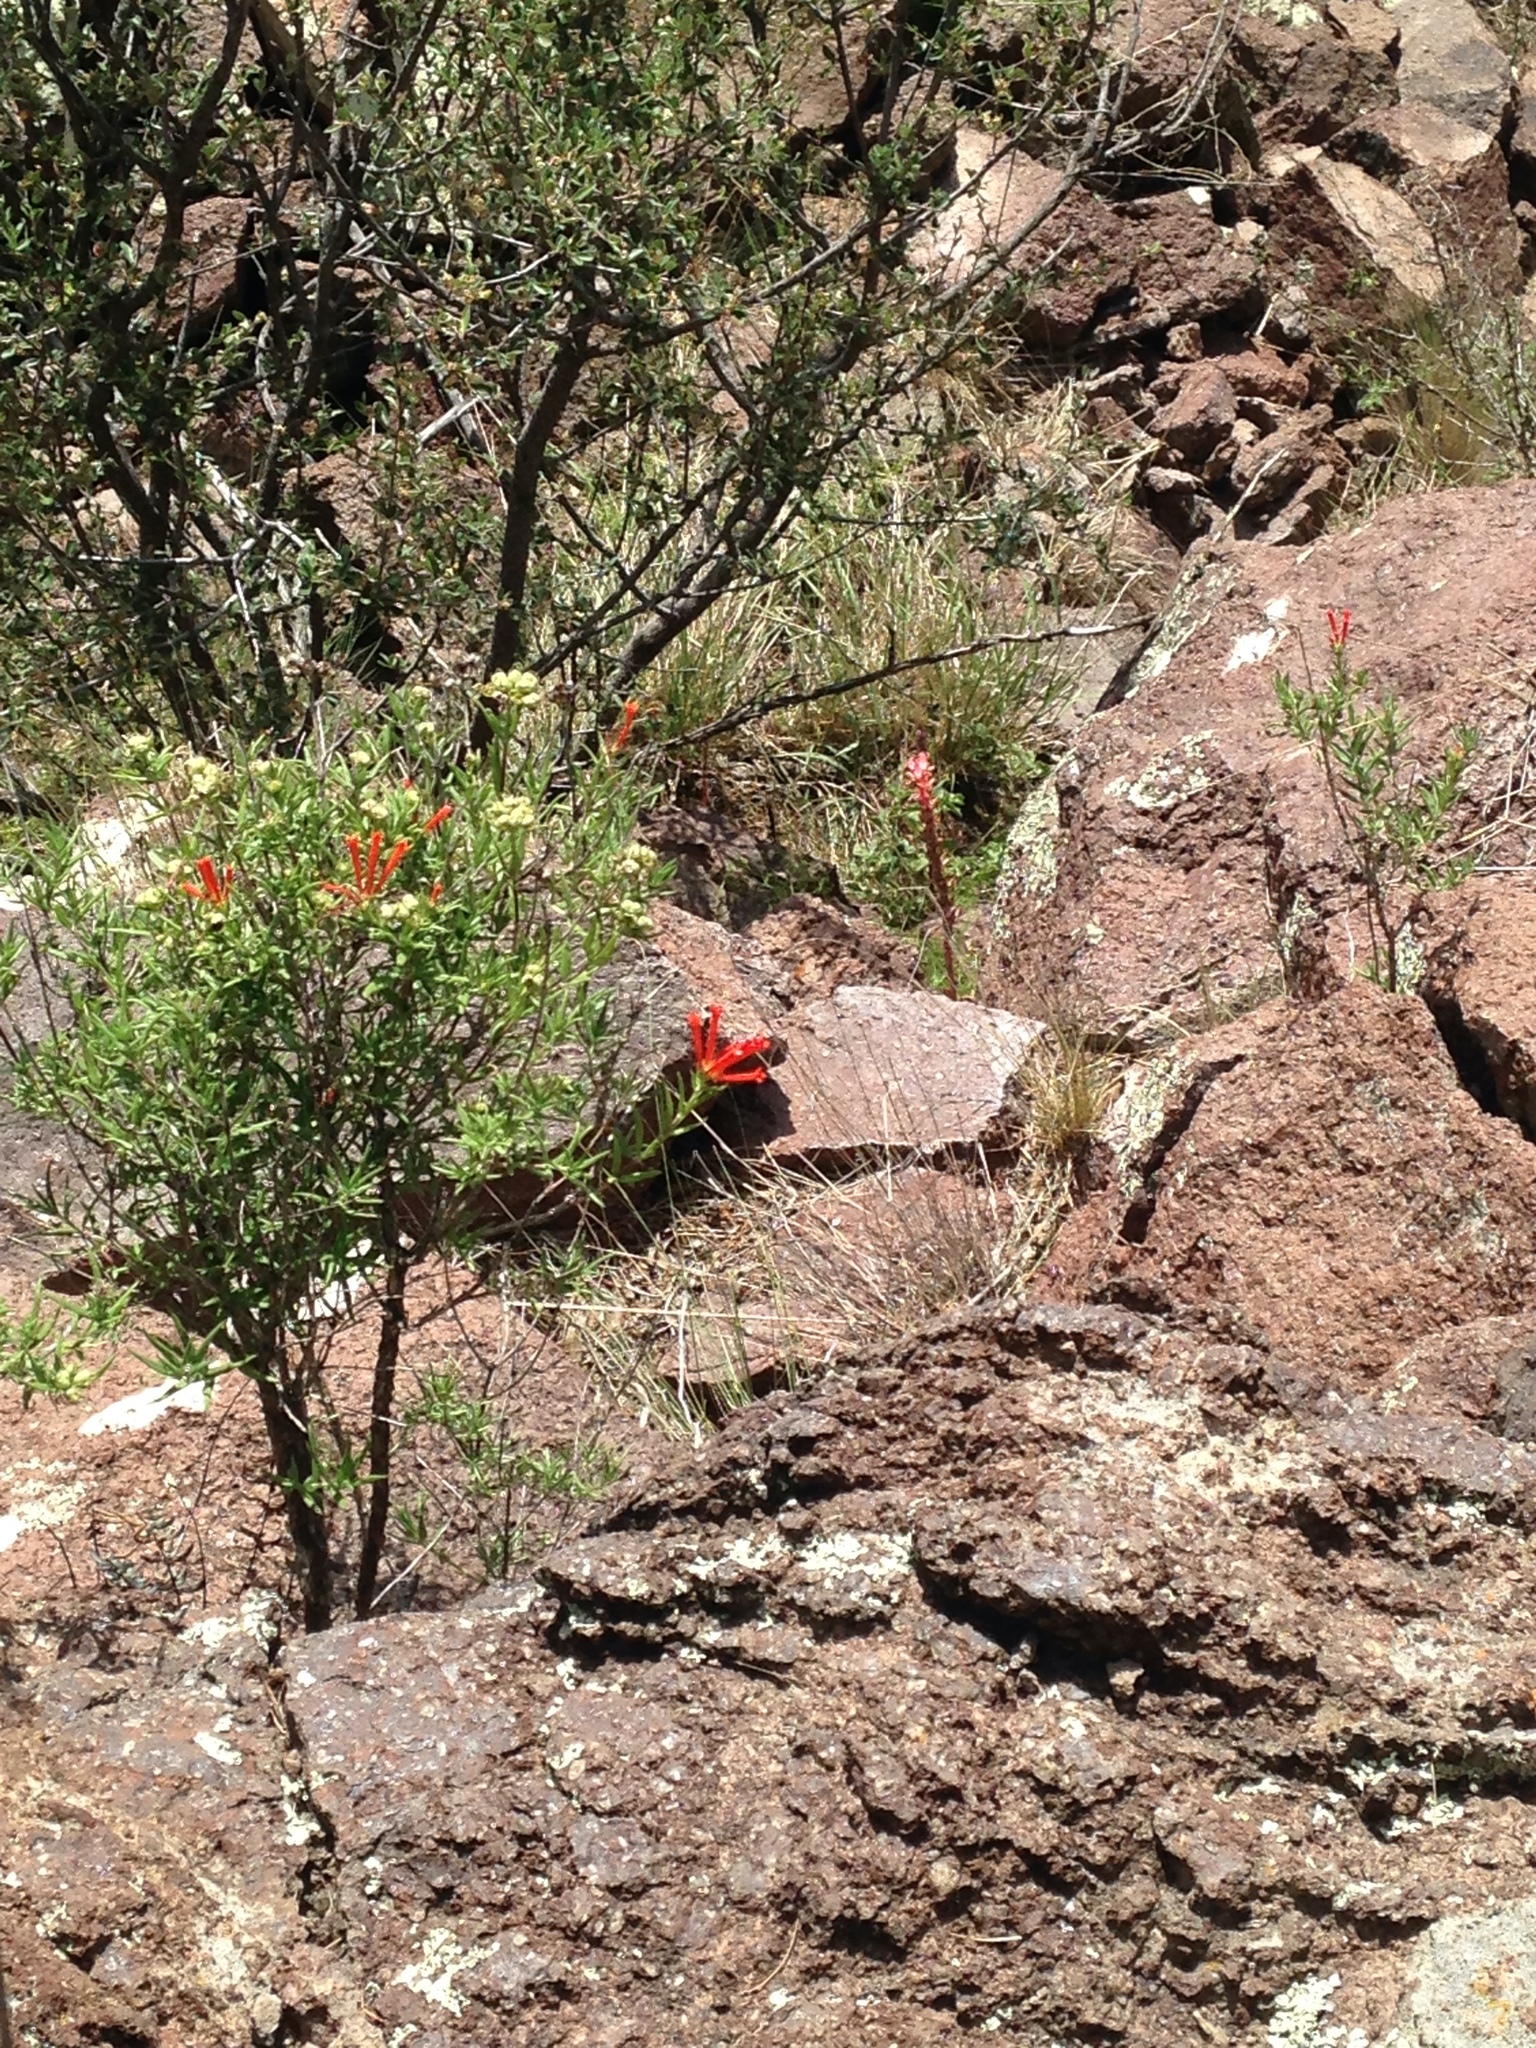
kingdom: Plantae
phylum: Tracheophyta
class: Magnoliopsida
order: Gentianales
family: Rubiaceae
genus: Bouvardia
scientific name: Bouvardia ternifolia
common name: Scarlet bouvardia
